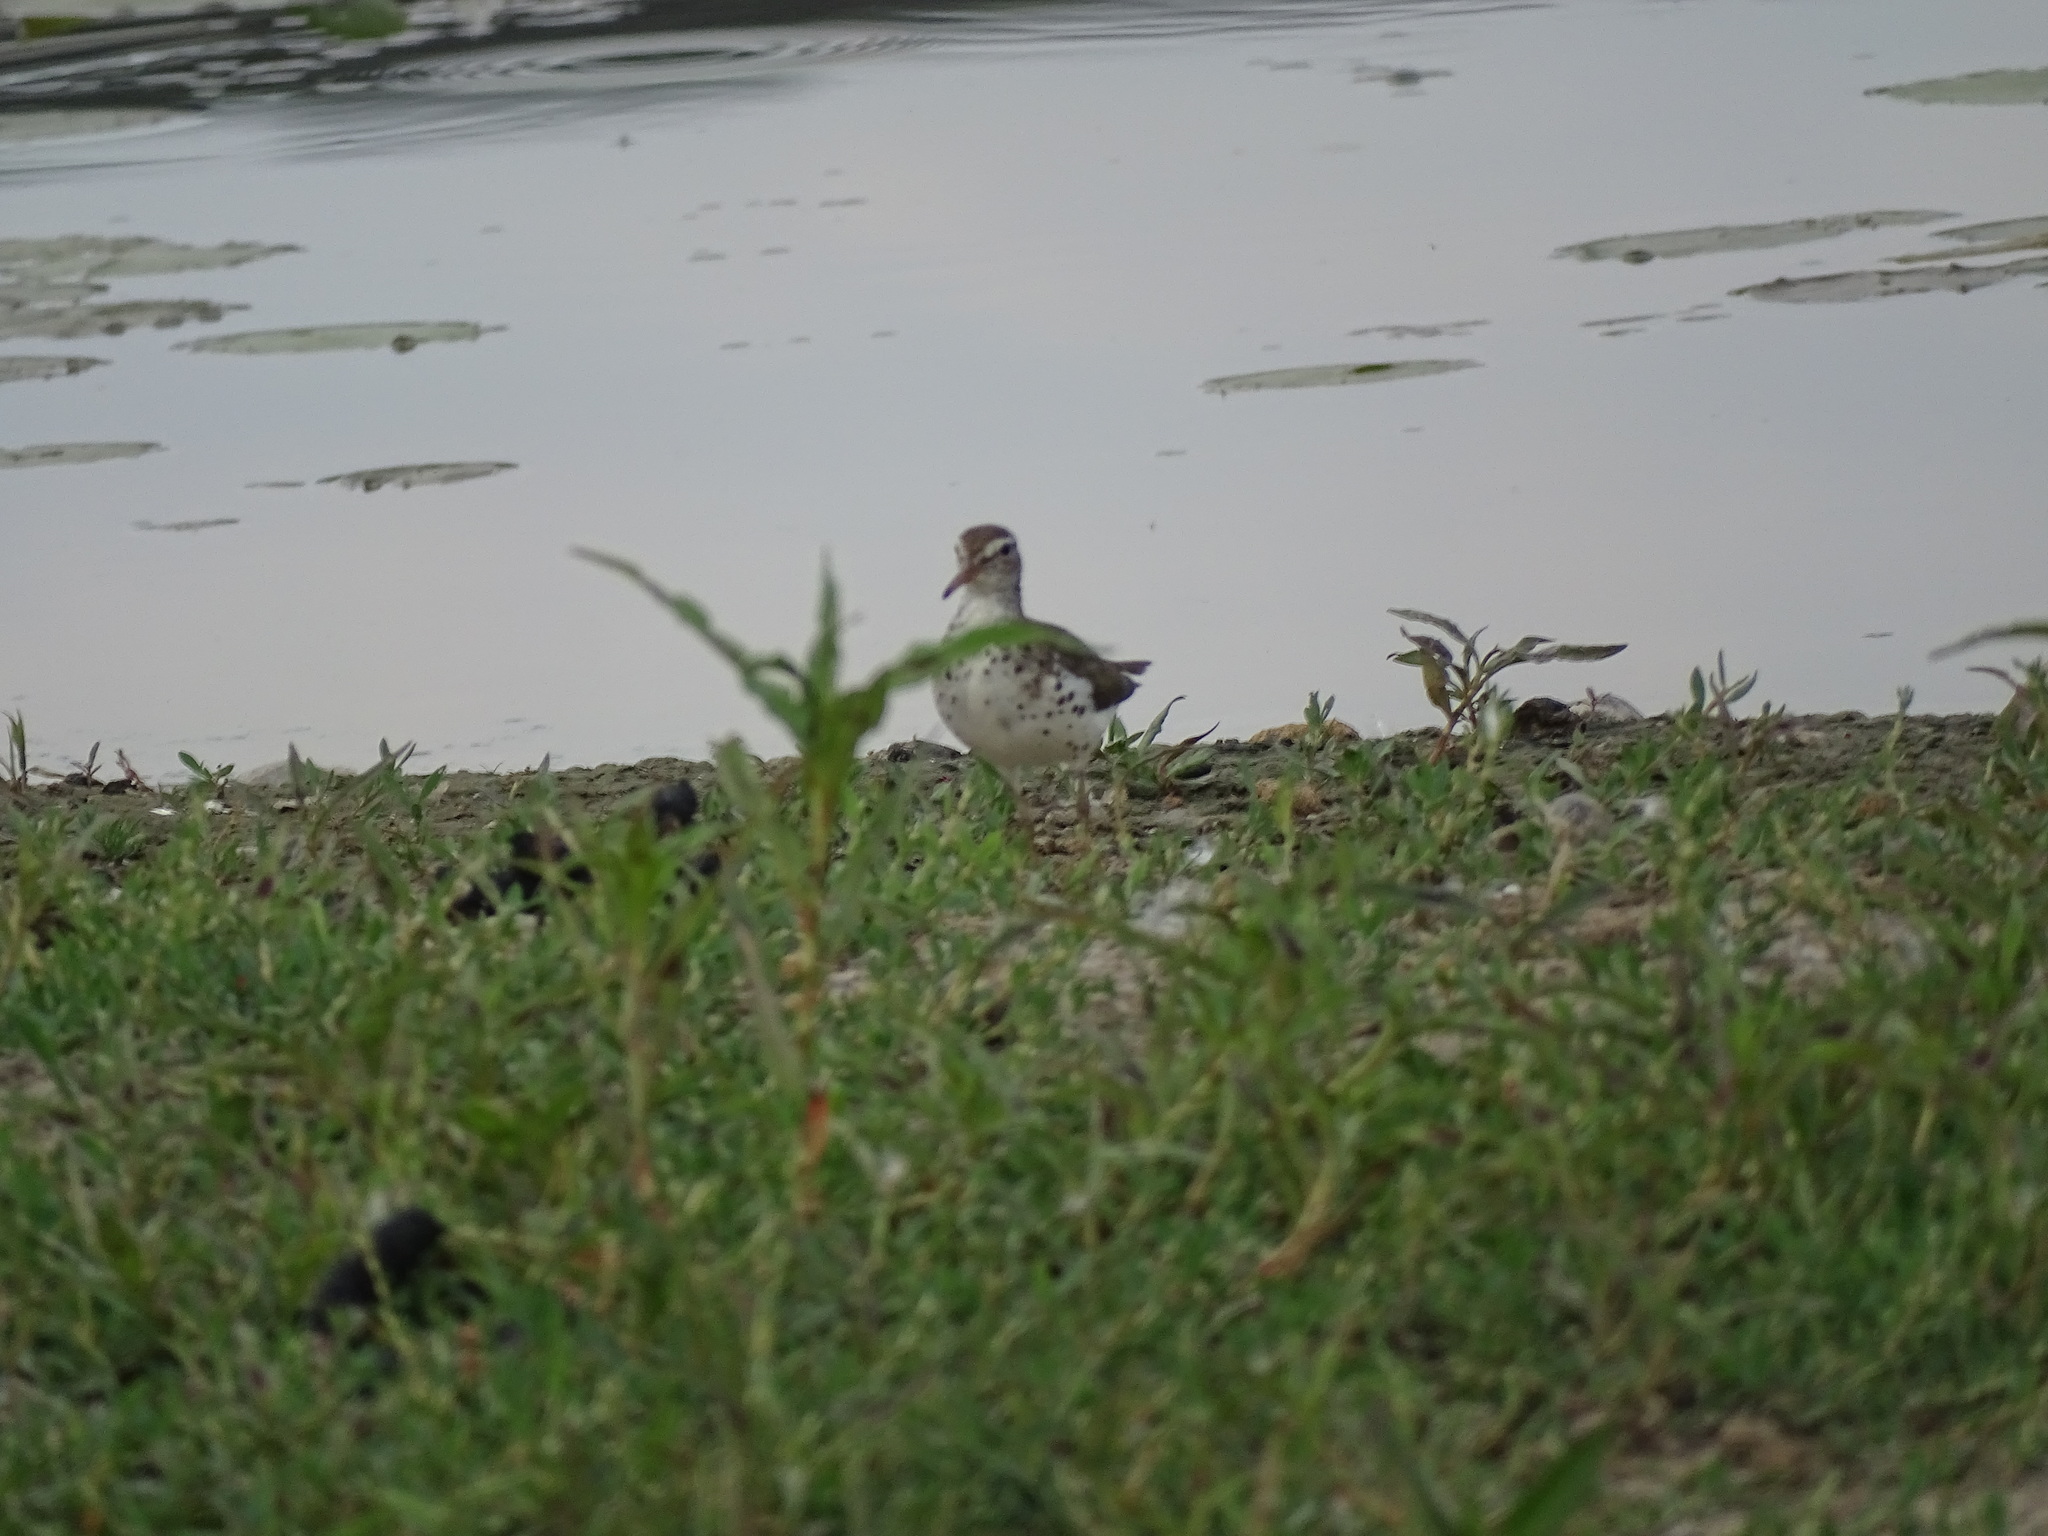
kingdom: Animalia
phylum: Chordata
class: Aves
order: Charadriiformes
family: Scolopacidae
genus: Actitis
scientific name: Actitis macularius
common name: Spotted sandpiper
